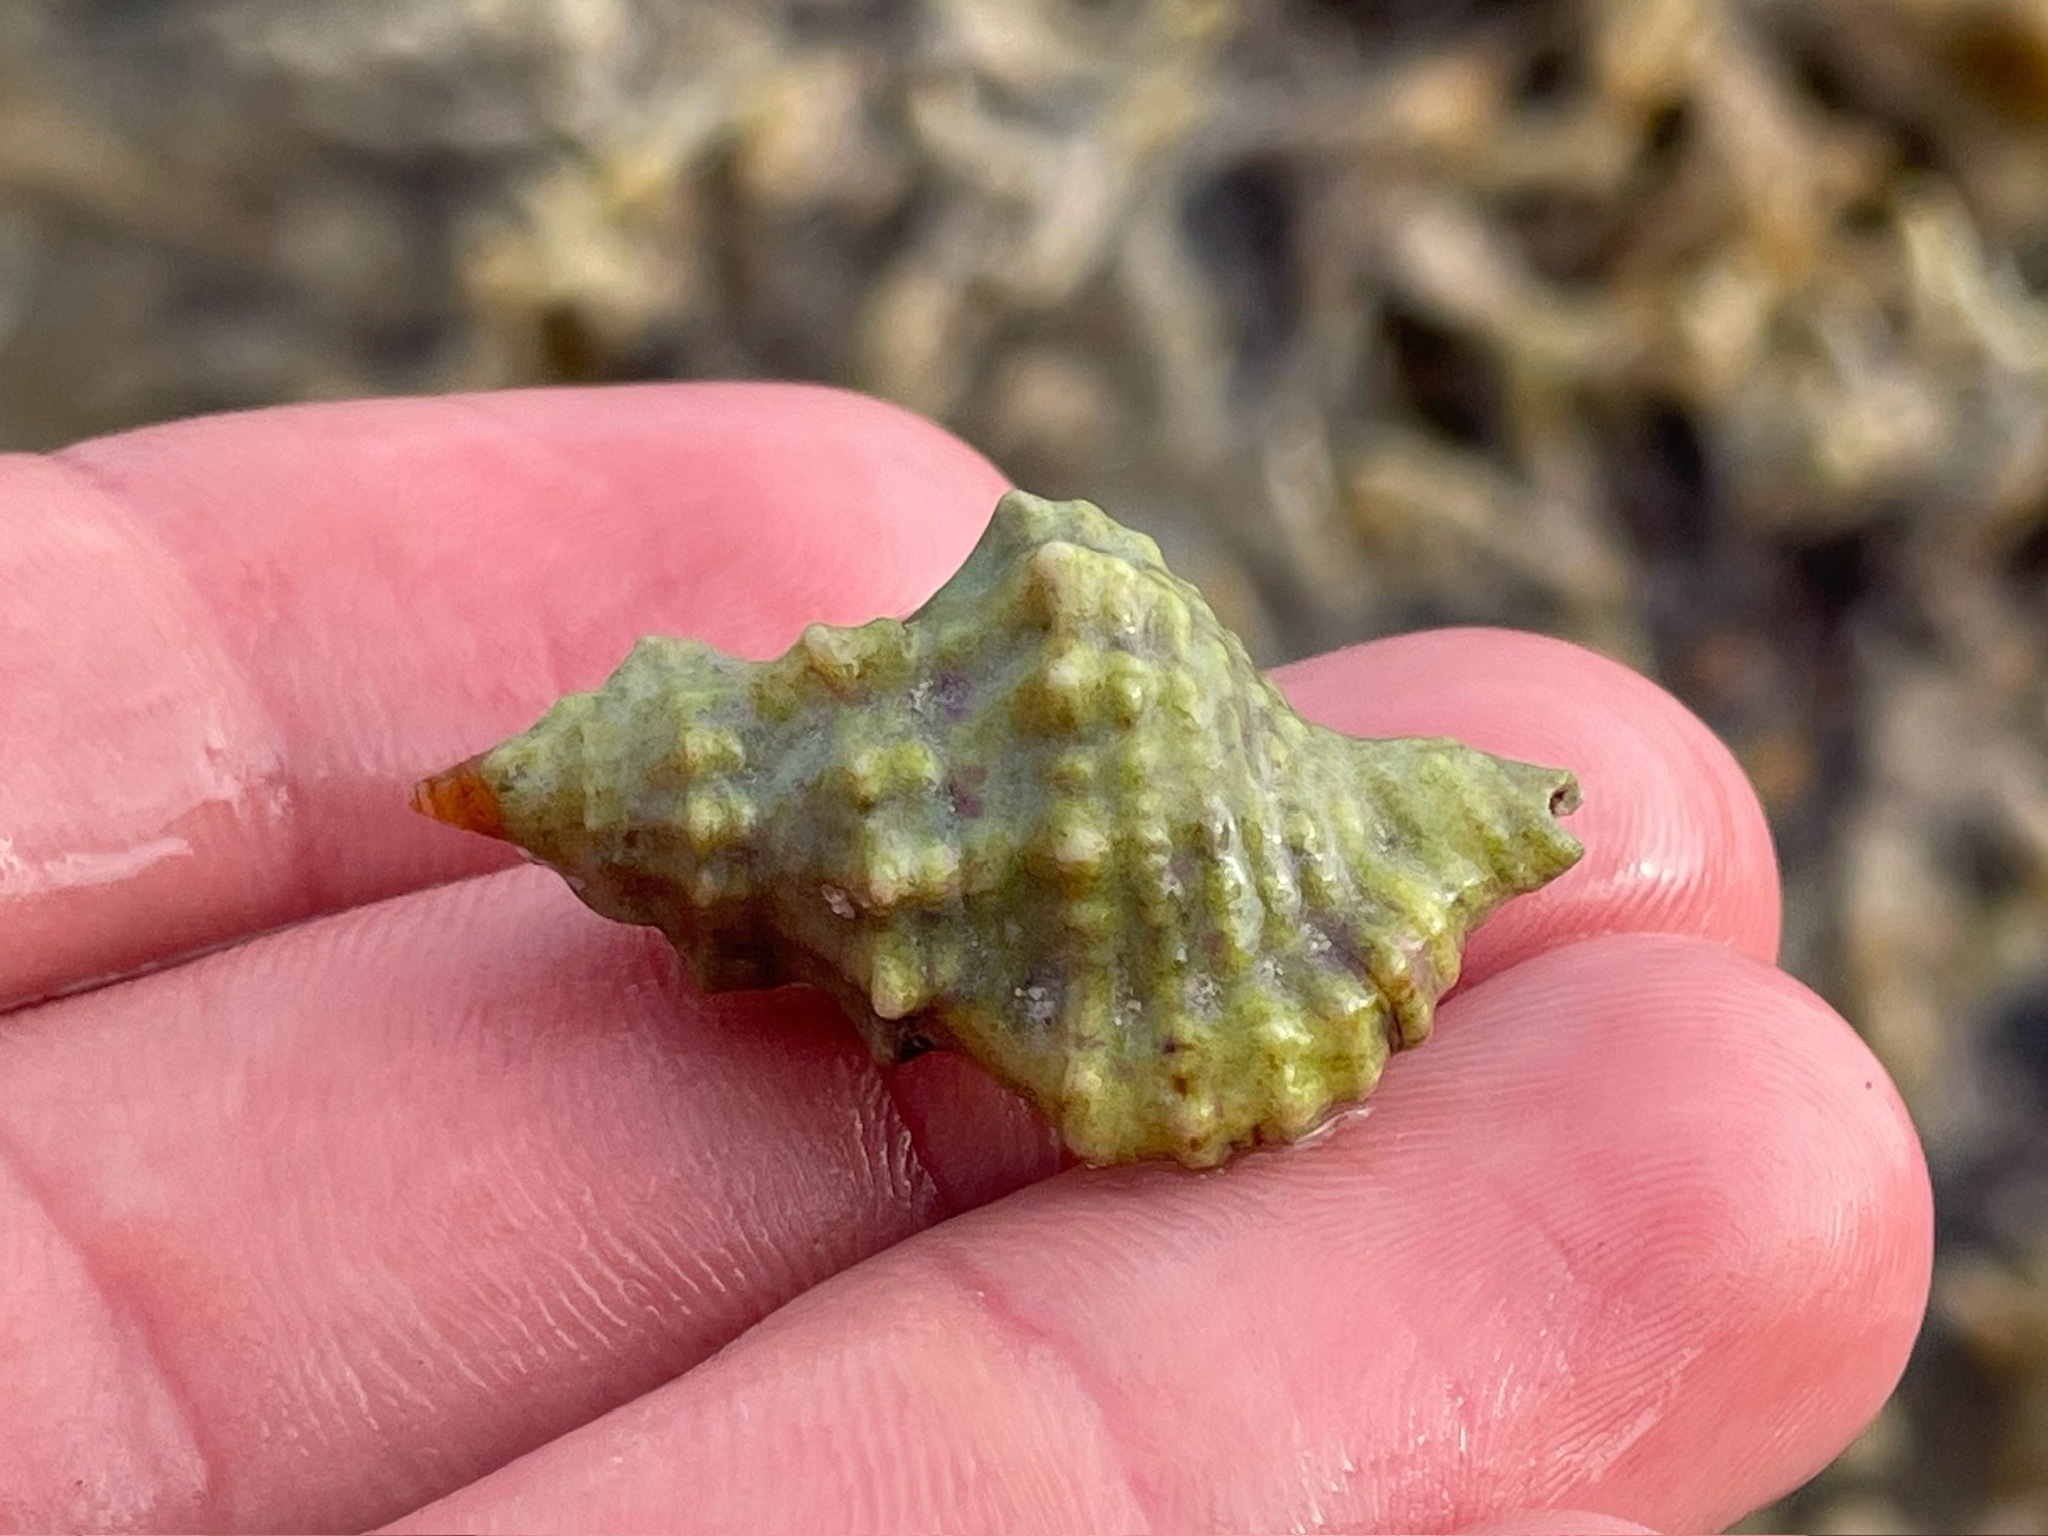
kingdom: Animalia
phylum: Mollusca
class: Gastropoda
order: Littorinimorpha
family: Cymatiidae
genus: Monoplex
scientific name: Monoplex nicobaricus
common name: Goldmouth triton
